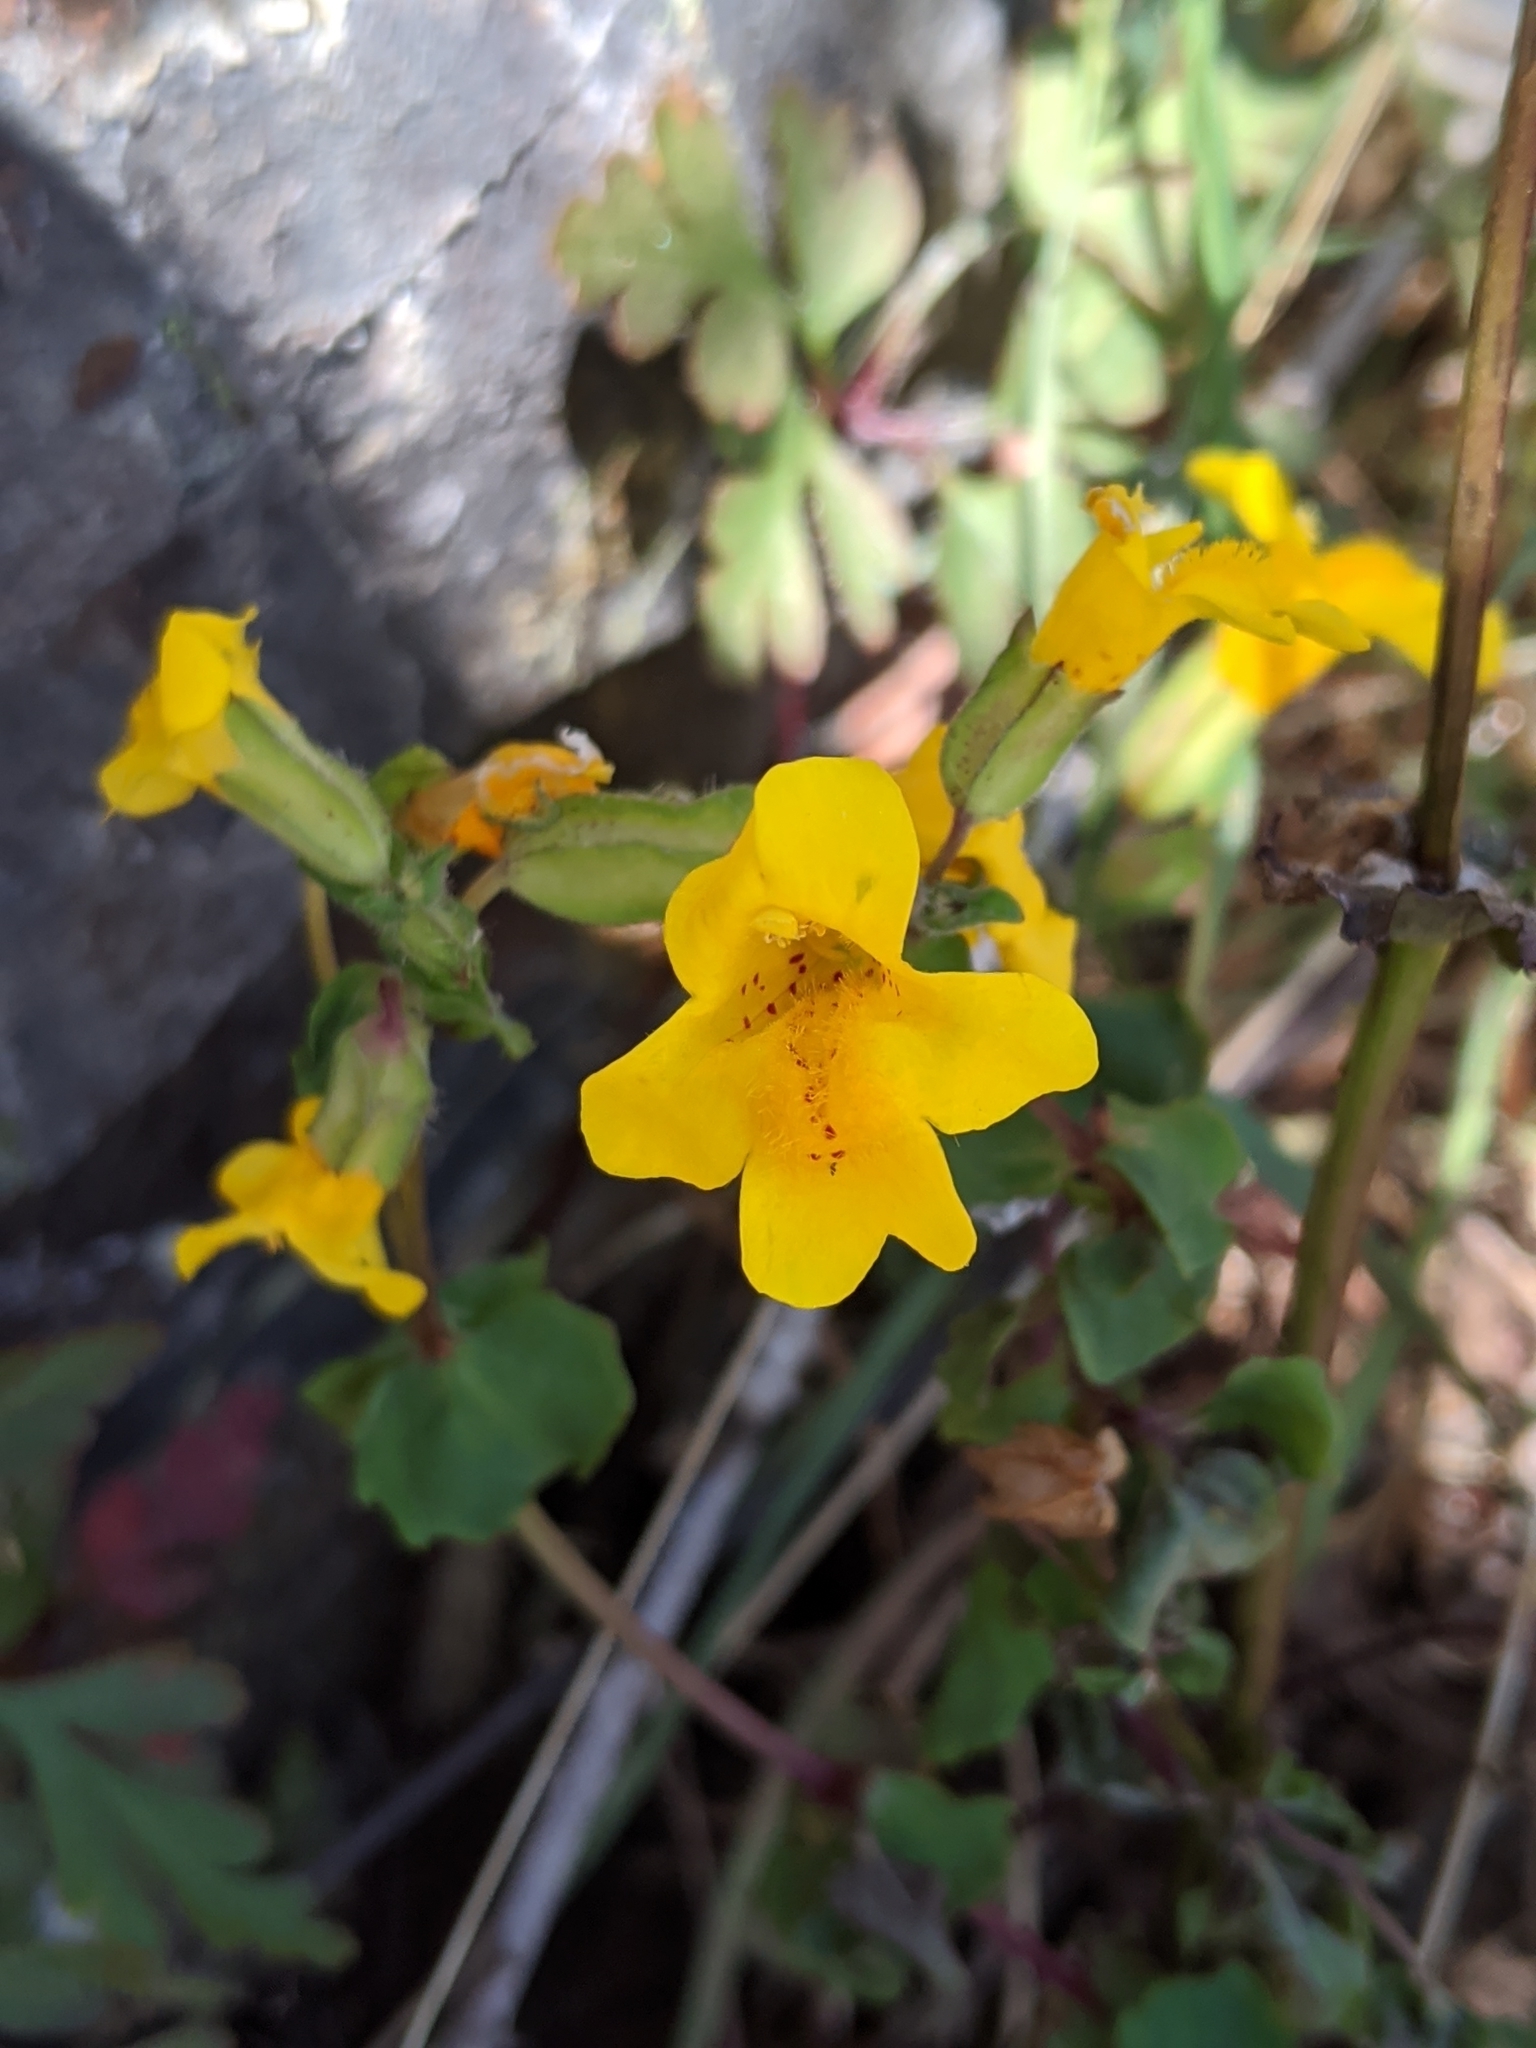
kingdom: Plantae
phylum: Tracheophyta
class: Magnoliopsida
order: Lamiales
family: Phrymaceae
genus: Erythranthe
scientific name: Erythranthe guttata
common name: Monkeyflower
